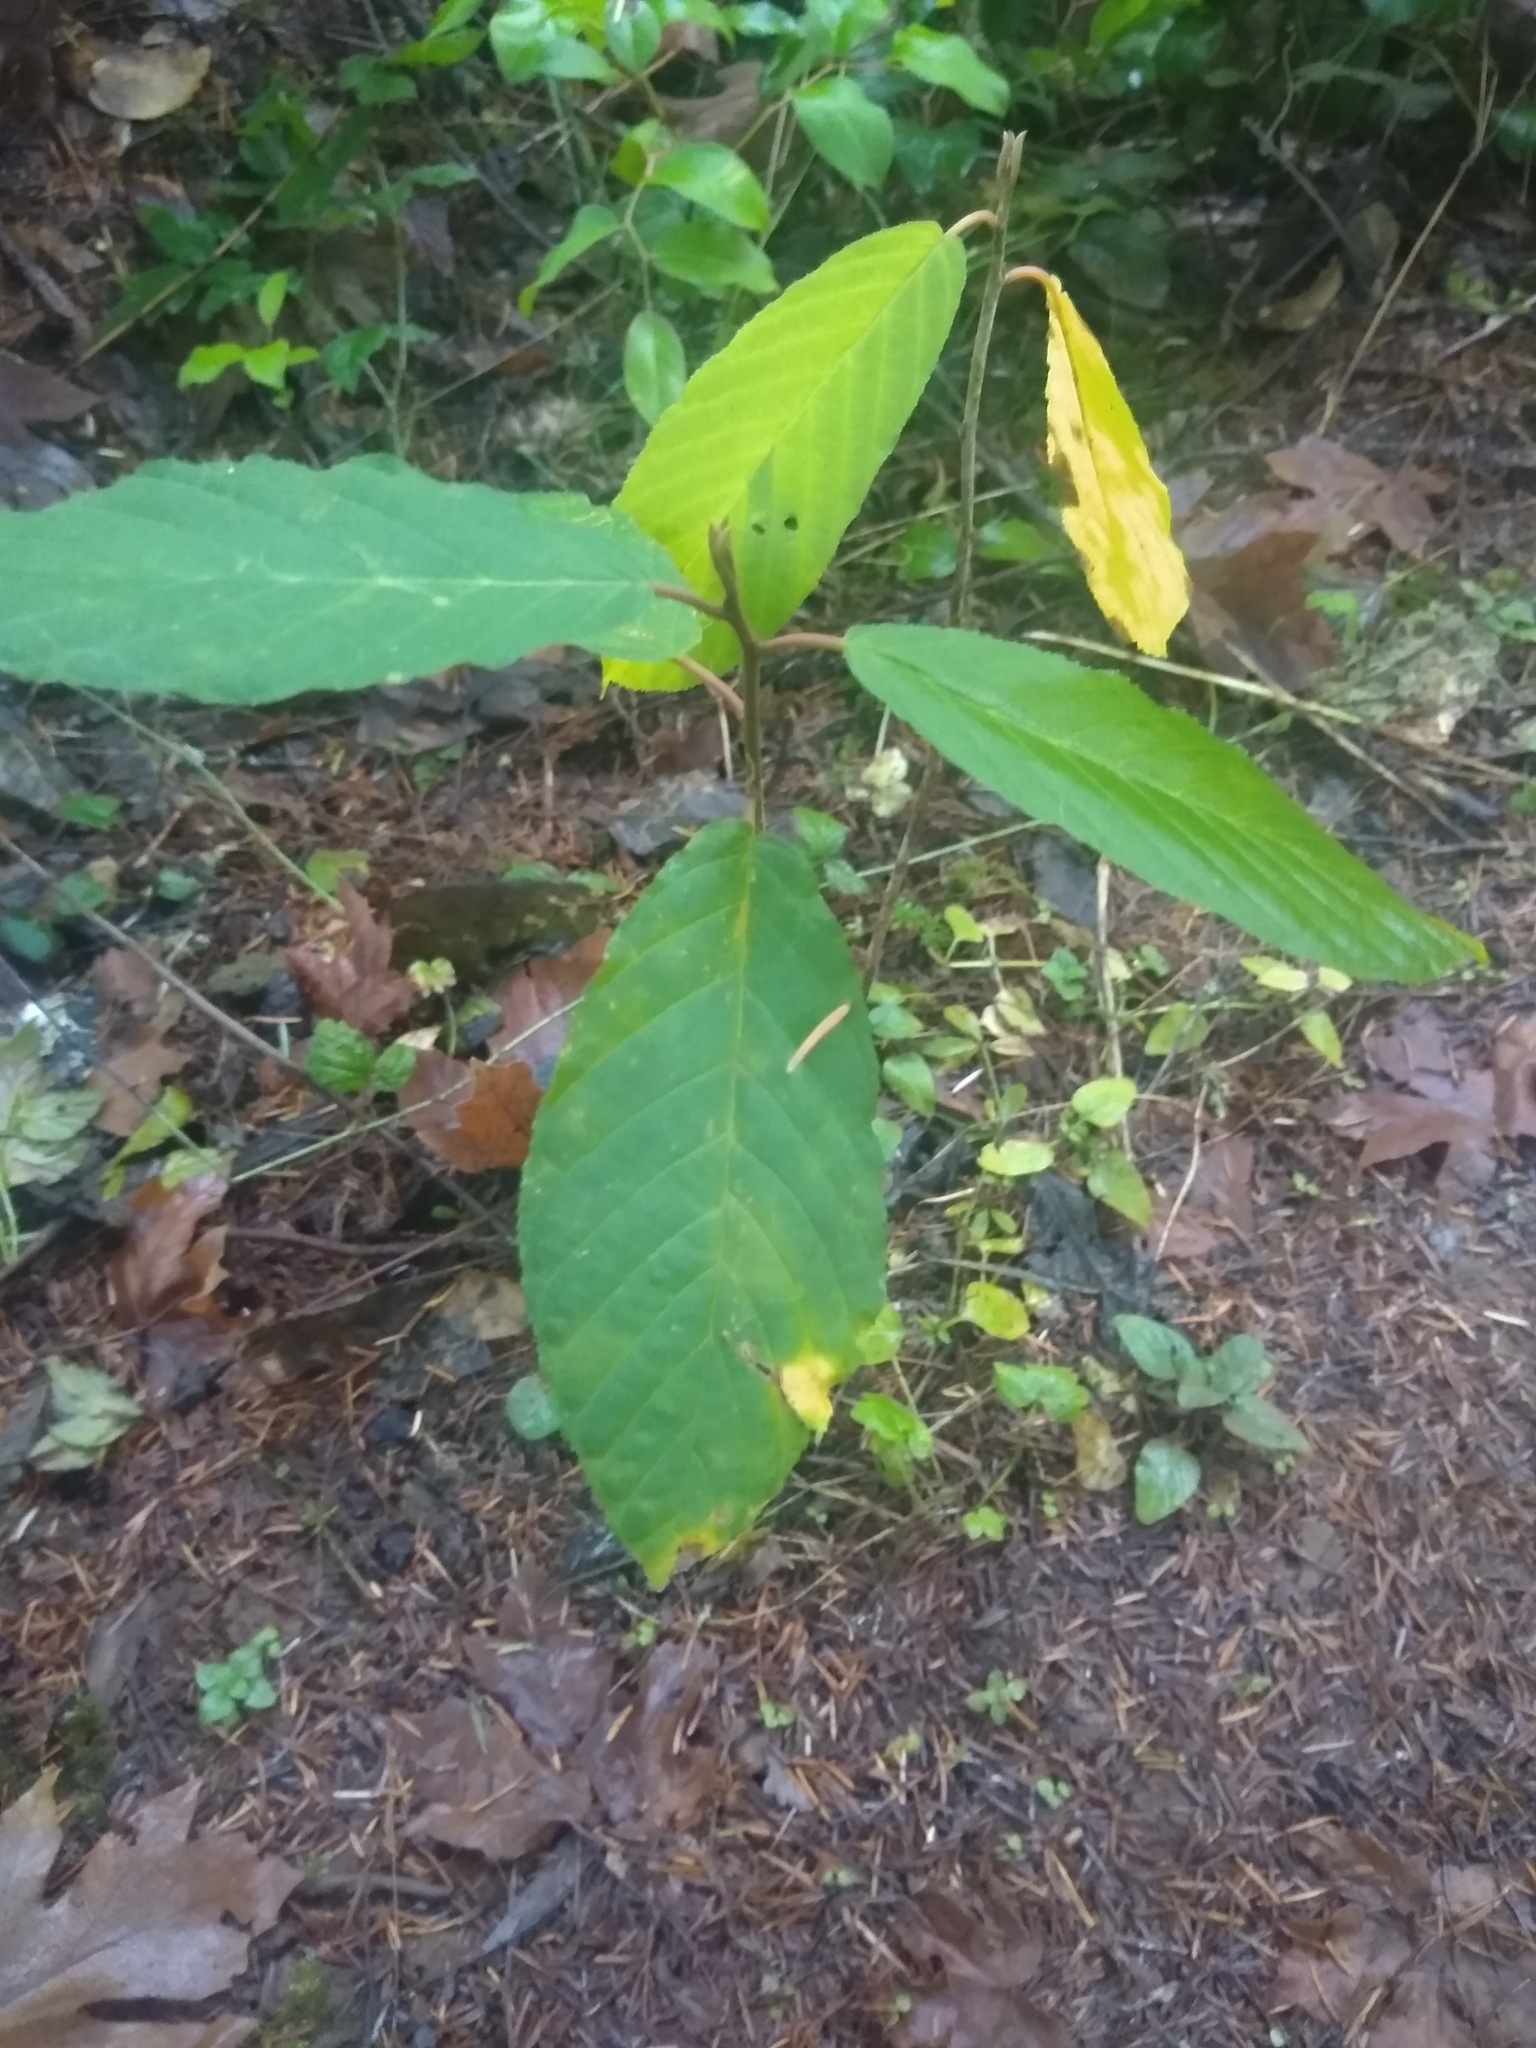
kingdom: Plantae
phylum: Tracheophyta
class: Magnoliopsida
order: Rosales
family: Rhamnaceae
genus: Frangula
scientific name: Frangula purshiana
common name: Cascara buckthorn
